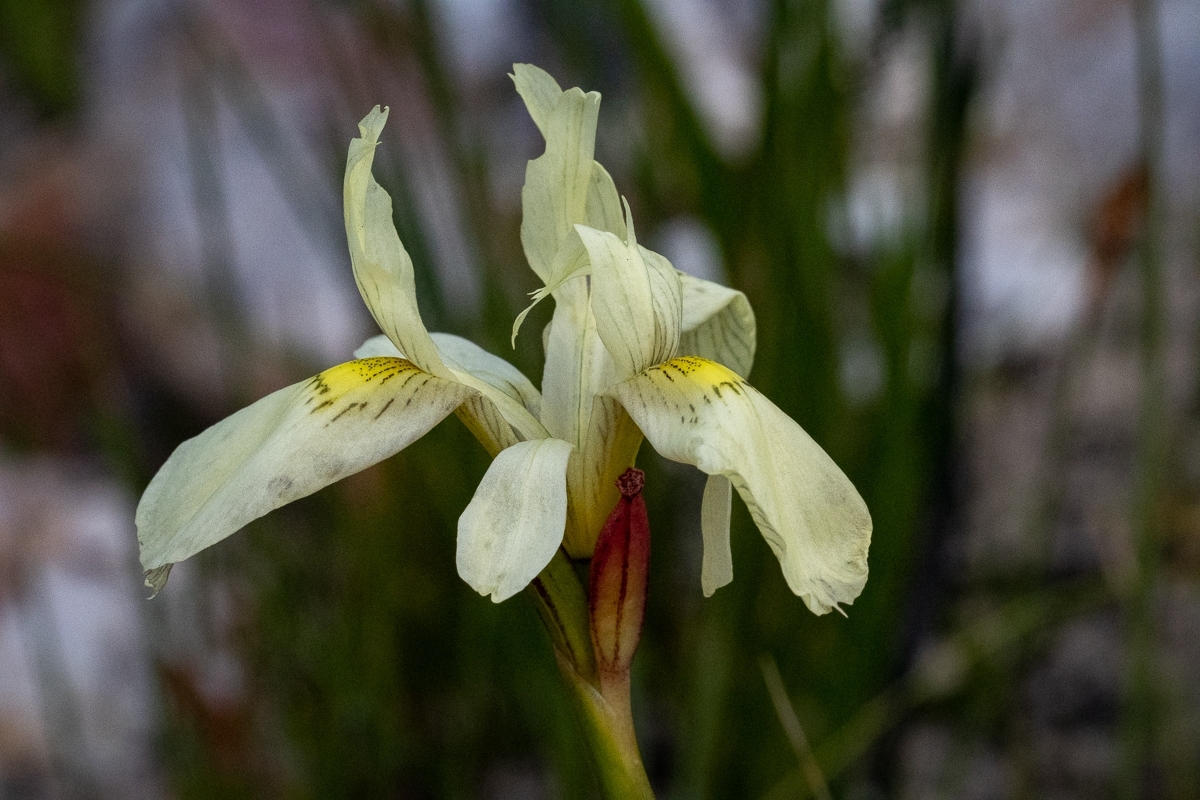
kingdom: Plantae
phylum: Tracheophyta
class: Liliopsida
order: Asparagales
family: Iridaceae
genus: Moraea
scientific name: Moraea anomala
